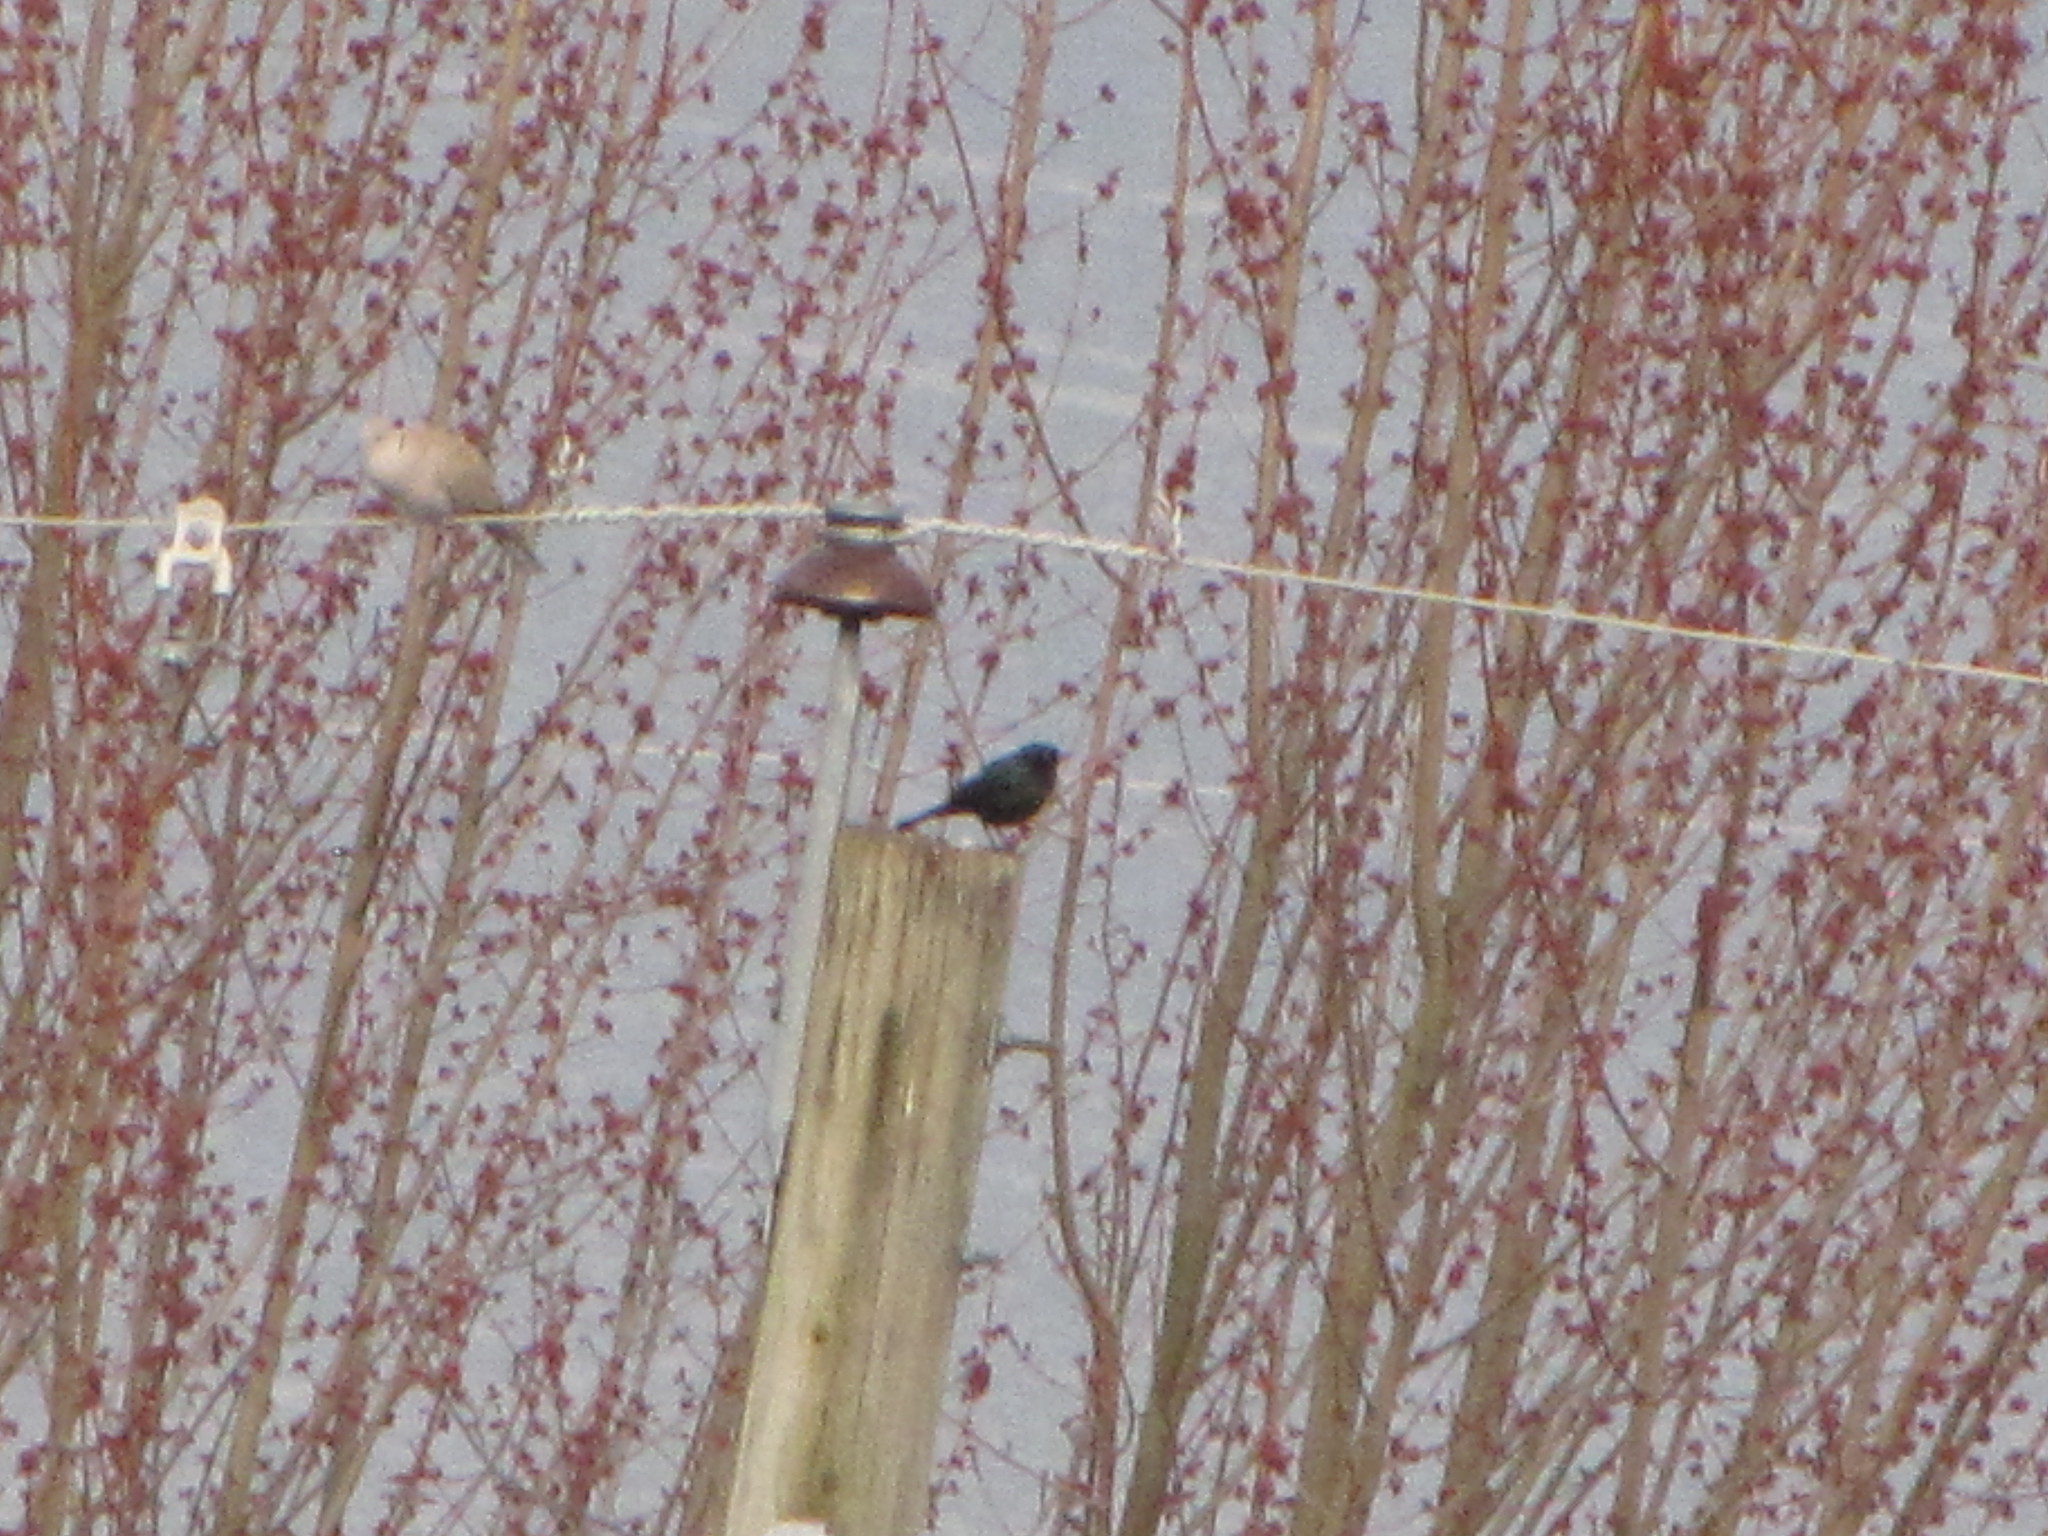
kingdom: Animalia
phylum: Chordata
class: Aves
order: Passeriformes
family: Icteridae
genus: Euphagus
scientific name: Euphagus cyanocephalus
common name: Brewer's blackbird
